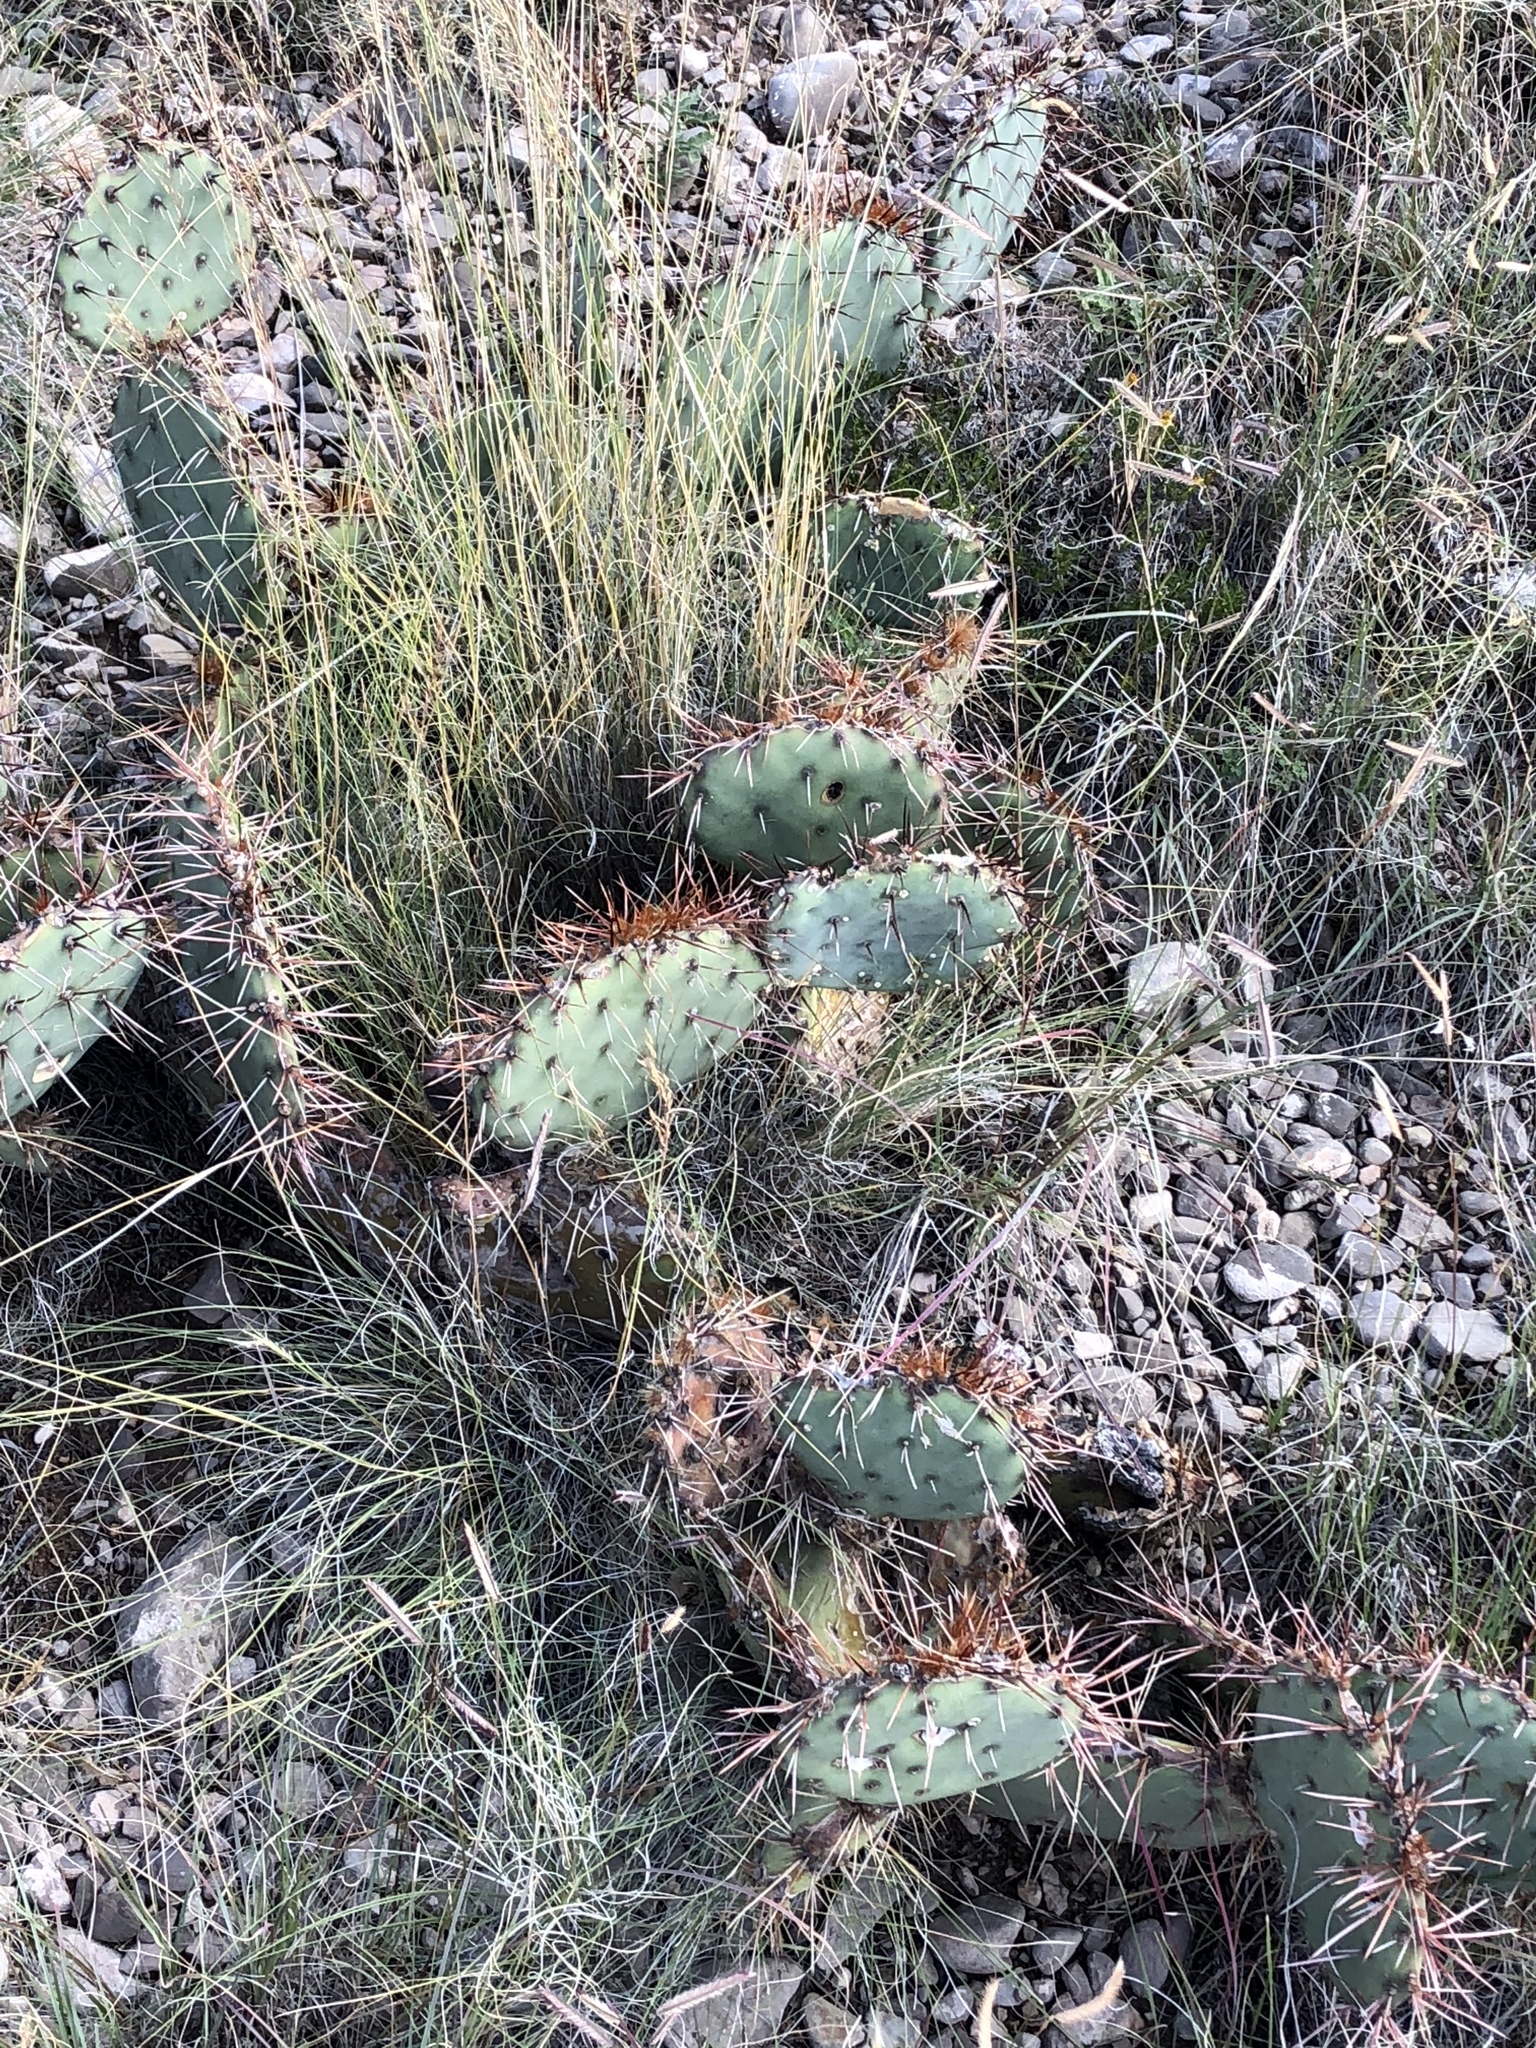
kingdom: Plantae
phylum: Tracheophyta
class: Magnoliopsida
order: Caryophyllales
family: Cactaceae
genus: Opuntia
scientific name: Opuntia phaeacantha
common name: New mexico prickly-pear
